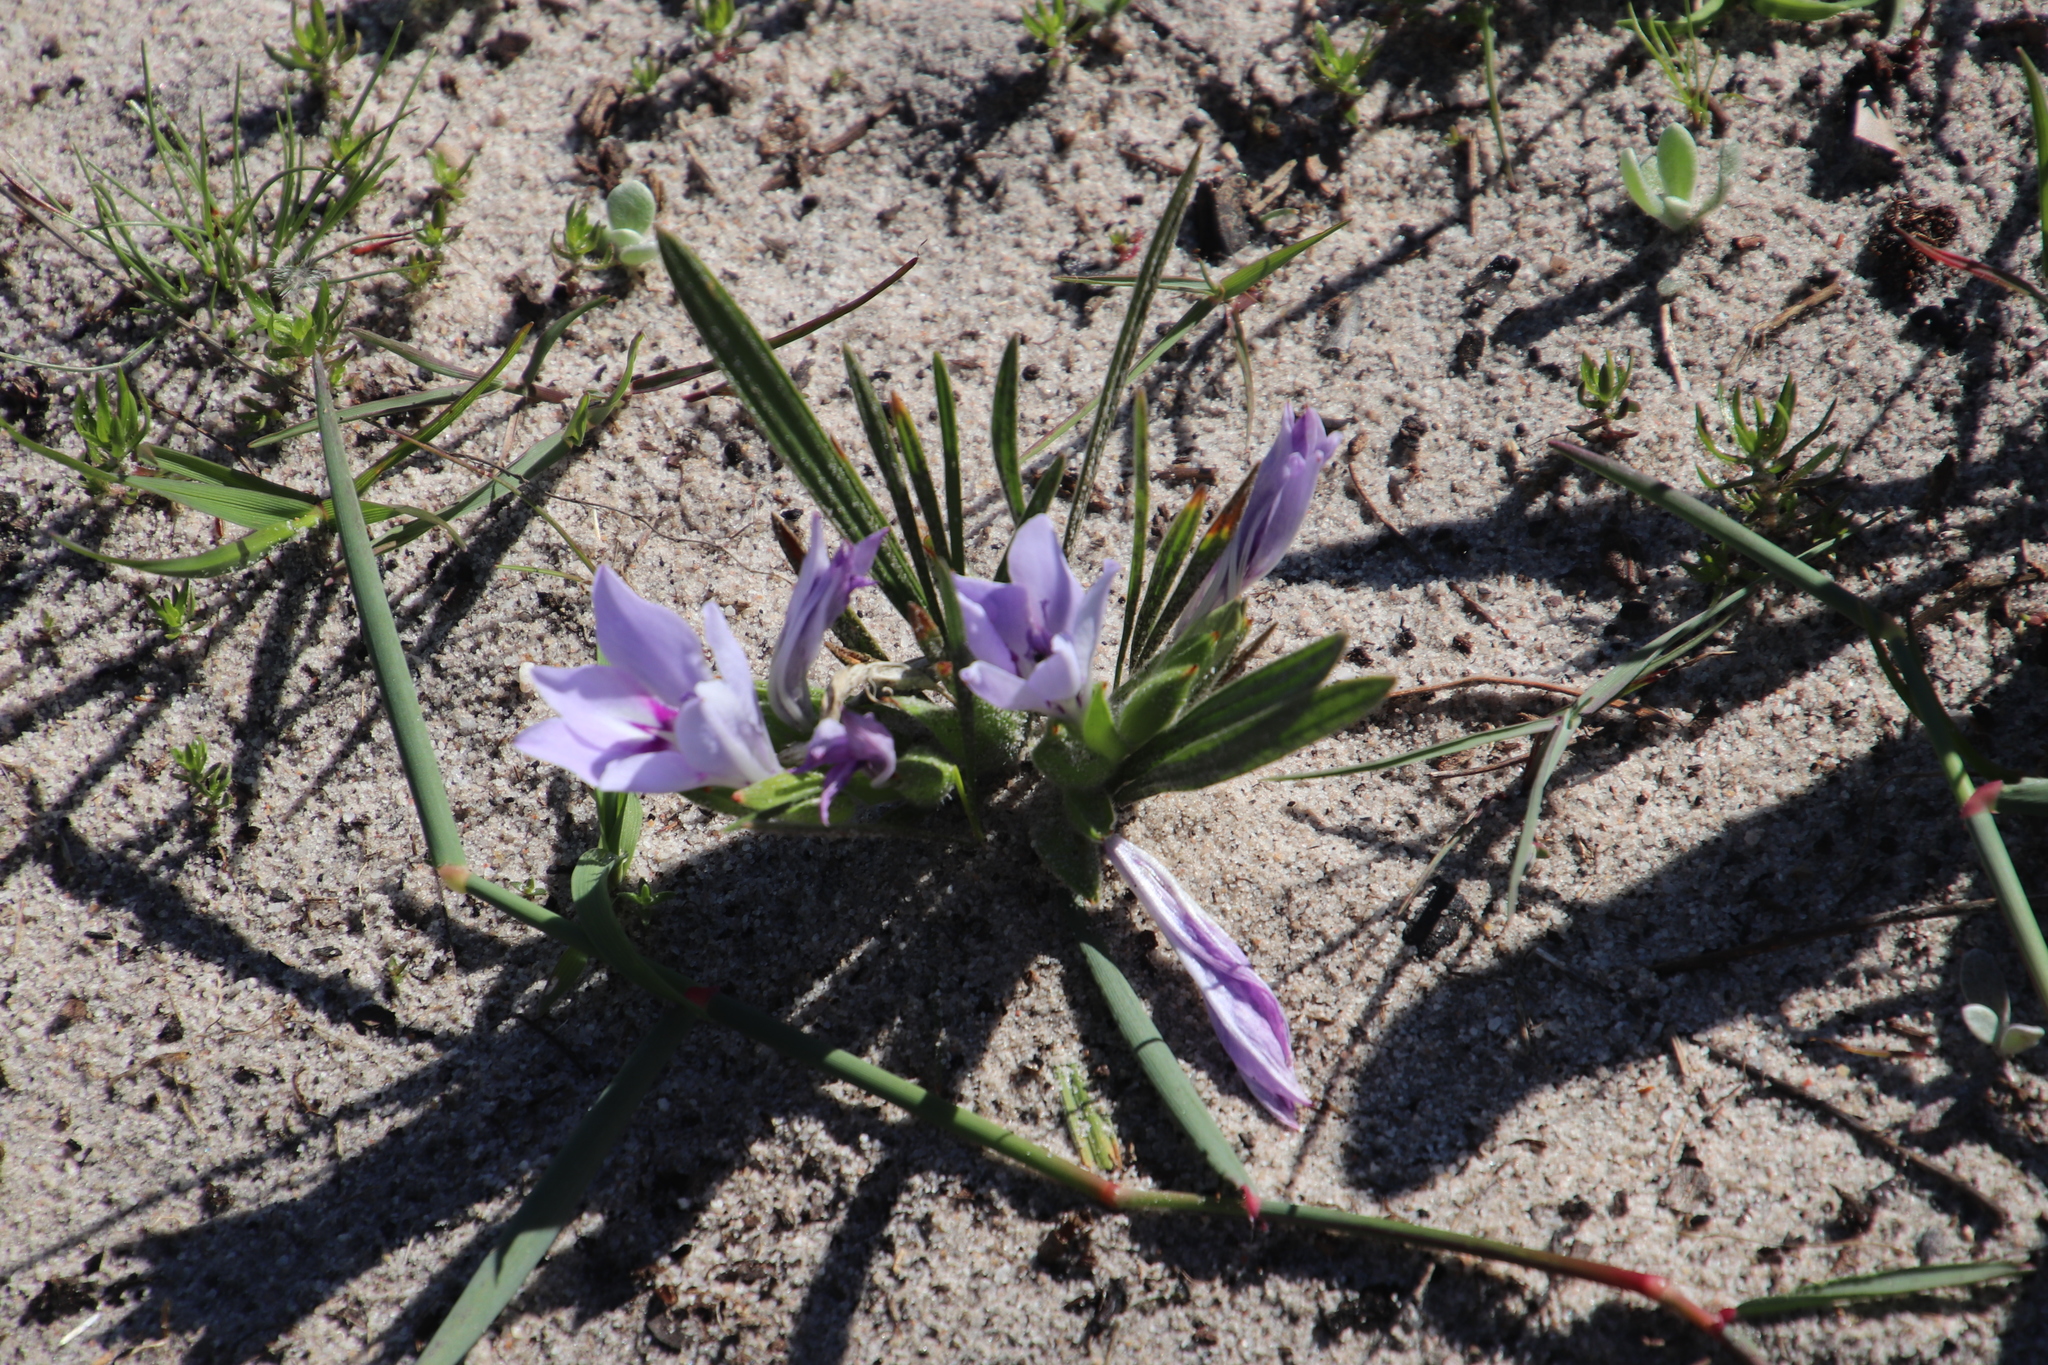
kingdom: Plantae
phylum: Tracheophyta
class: Liliopsida
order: Asparagales
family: Iridaceae
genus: Babiana
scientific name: Babiana ambigua
